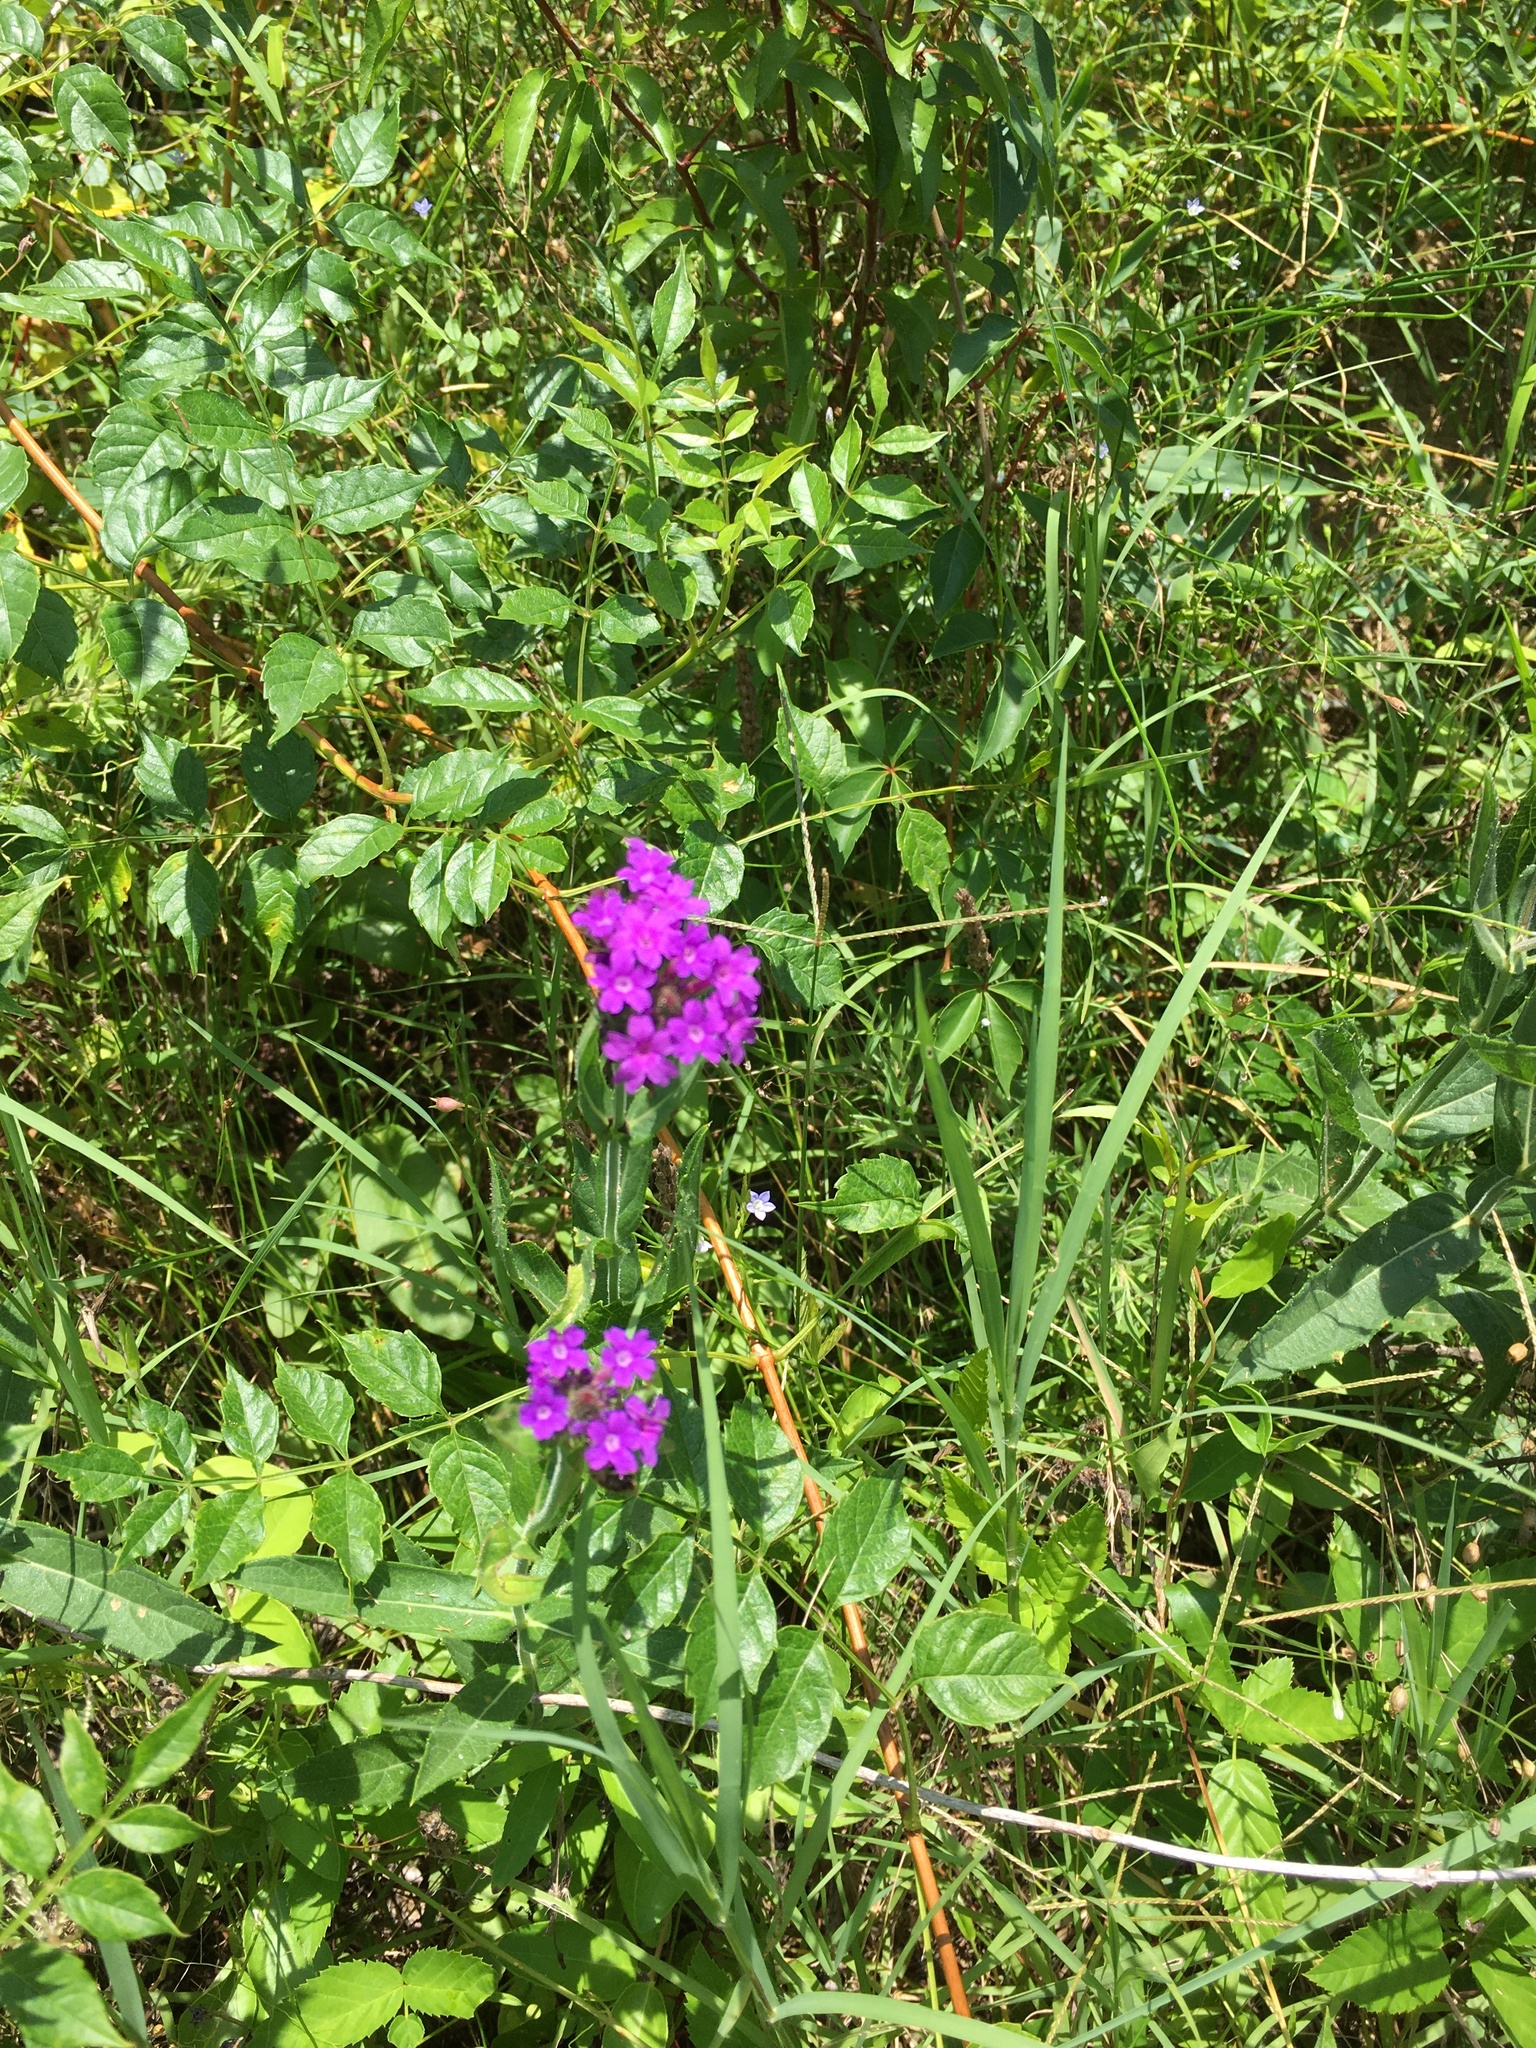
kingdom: Plantae
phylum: Tracheophyta
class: Magnoliopsida
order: Lamiales
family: Verbenaceae
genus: Verbena
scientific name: Verbena rigida
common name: Slender vervain
